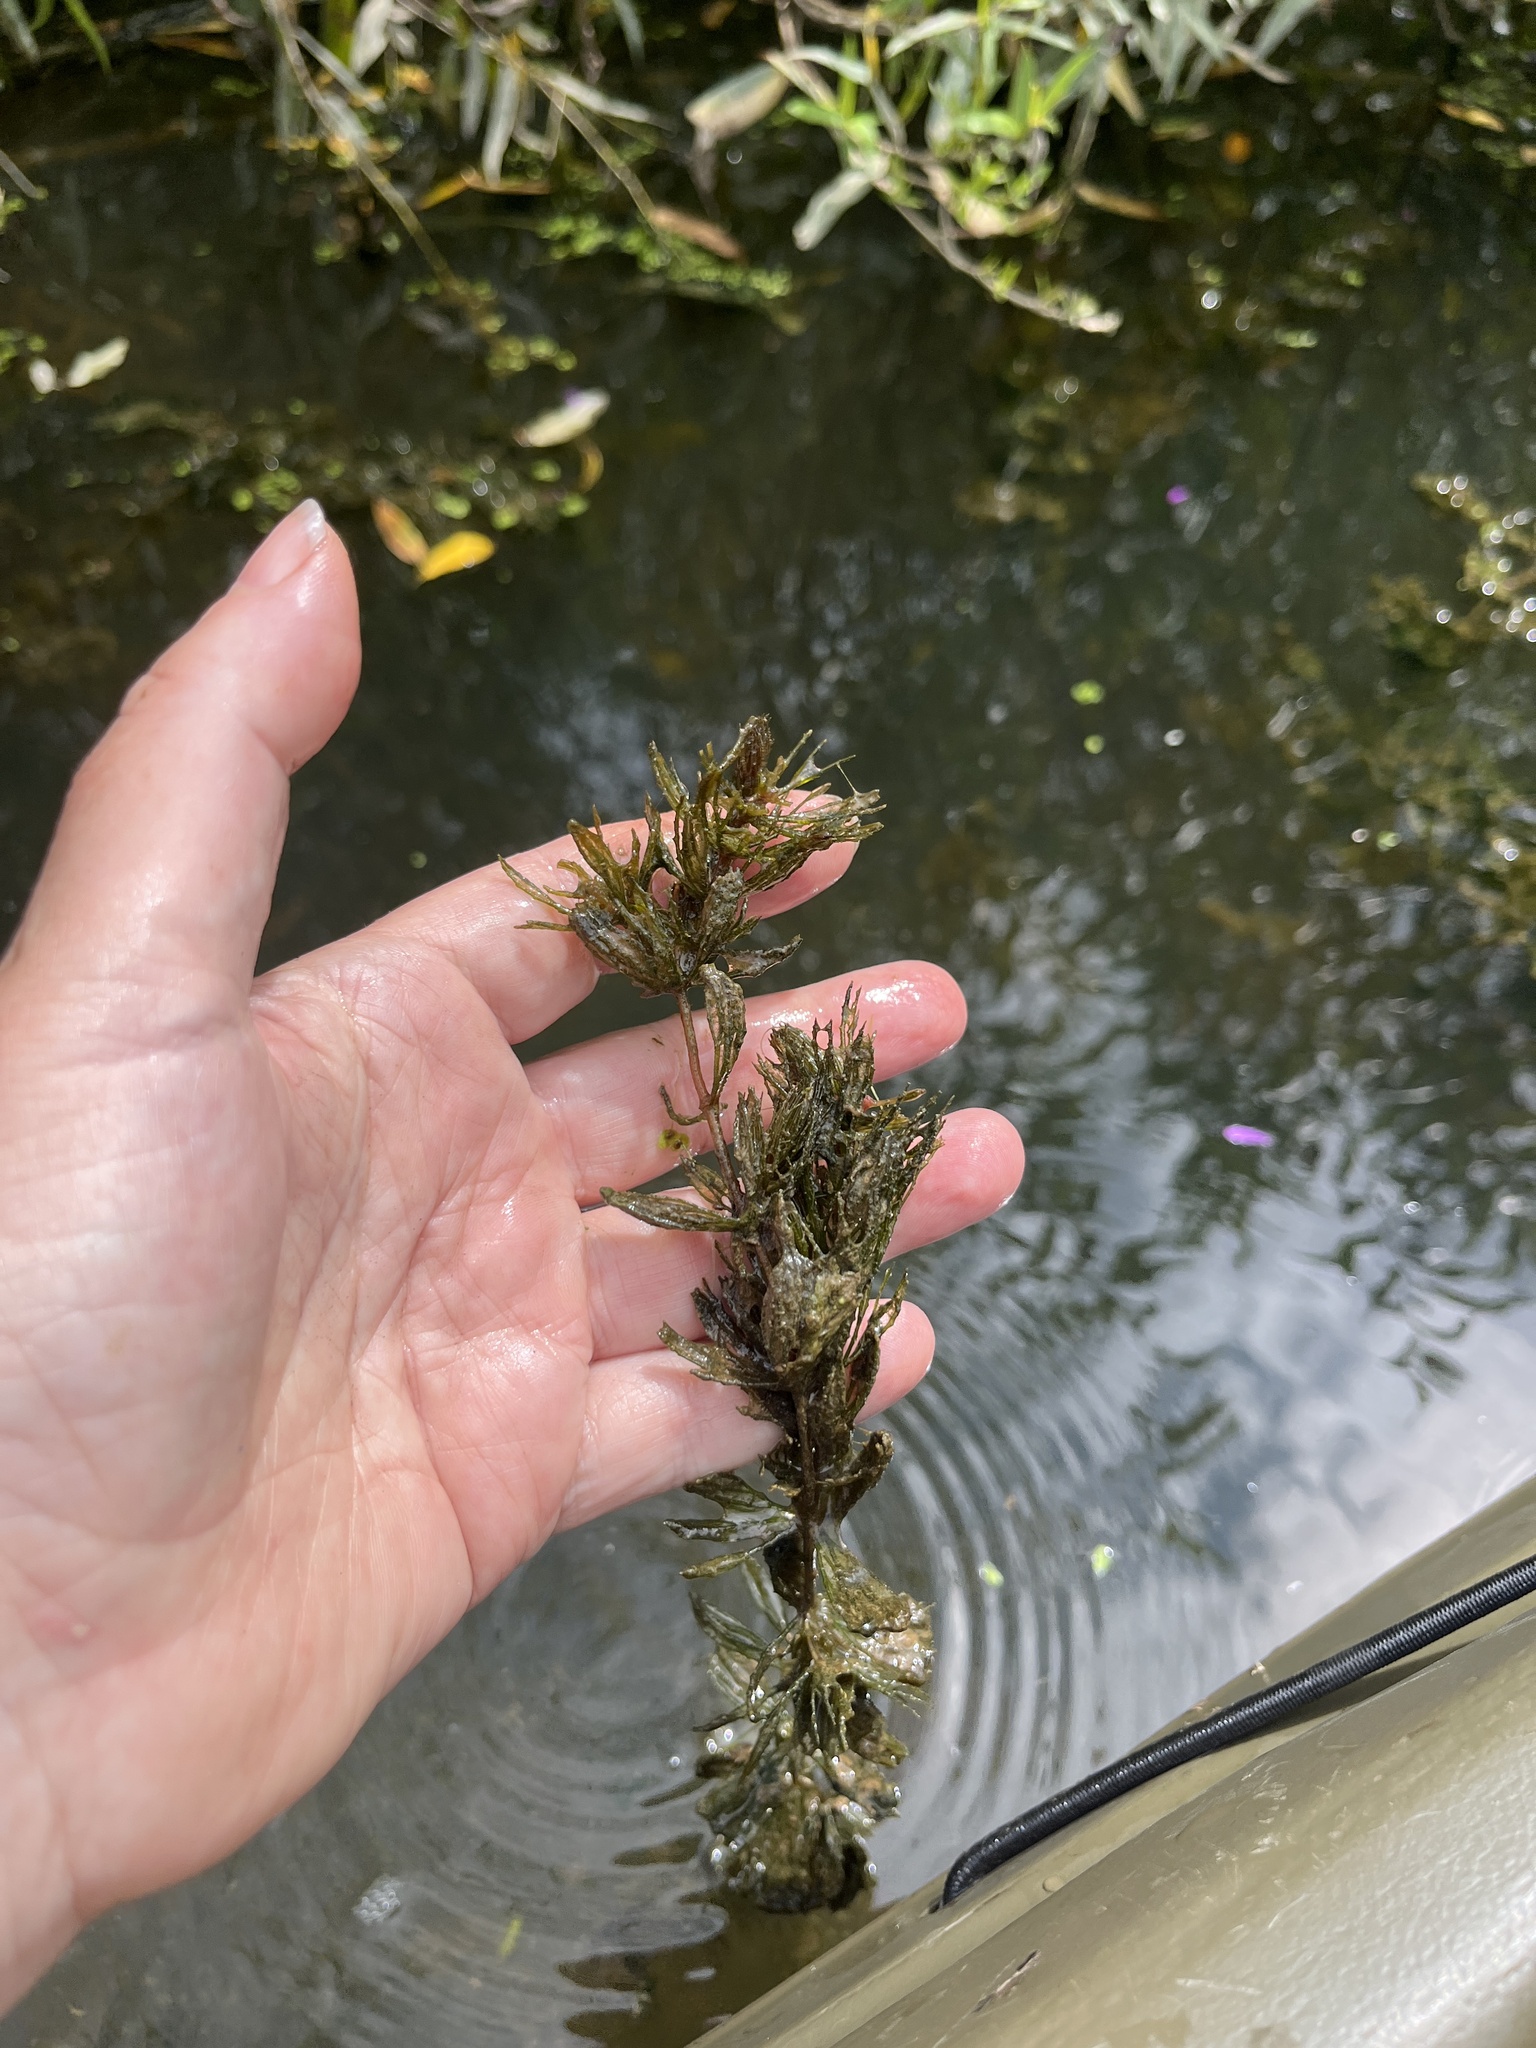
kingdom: Plantae
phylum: Tracheophyta
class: Magnoliopsida
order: Ceratophyllales
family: Ceratophyllaceae
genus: Ceratophyllum
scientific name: Ceratophyllum demersum
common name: Rigid hornwort
